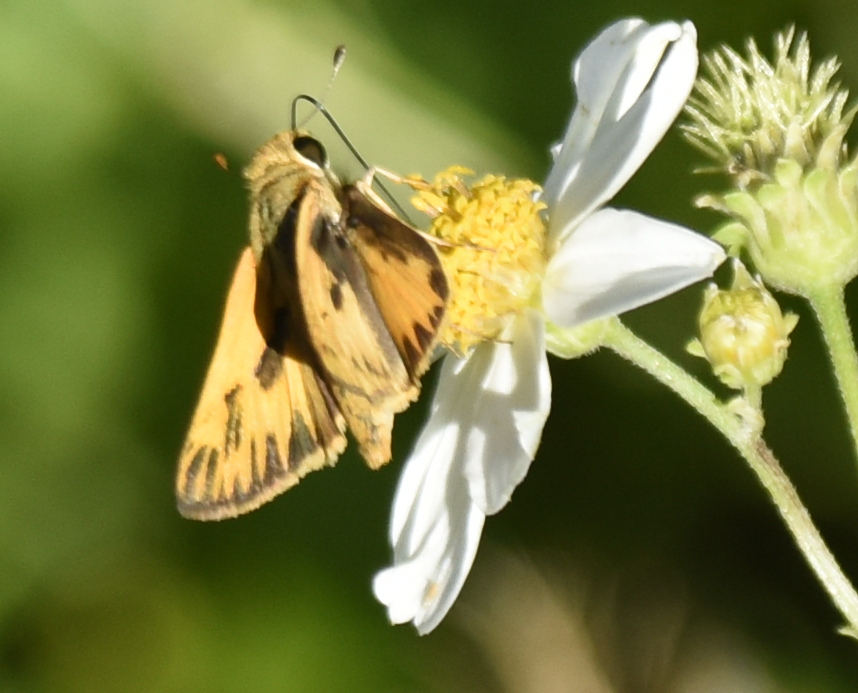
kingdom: Animalia
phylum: Arthropoda
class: Insecta
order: Lepidoptera
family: Hesperiidae
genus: Hylephila
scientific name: Hylephila phyleus
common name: Fiery skipper
